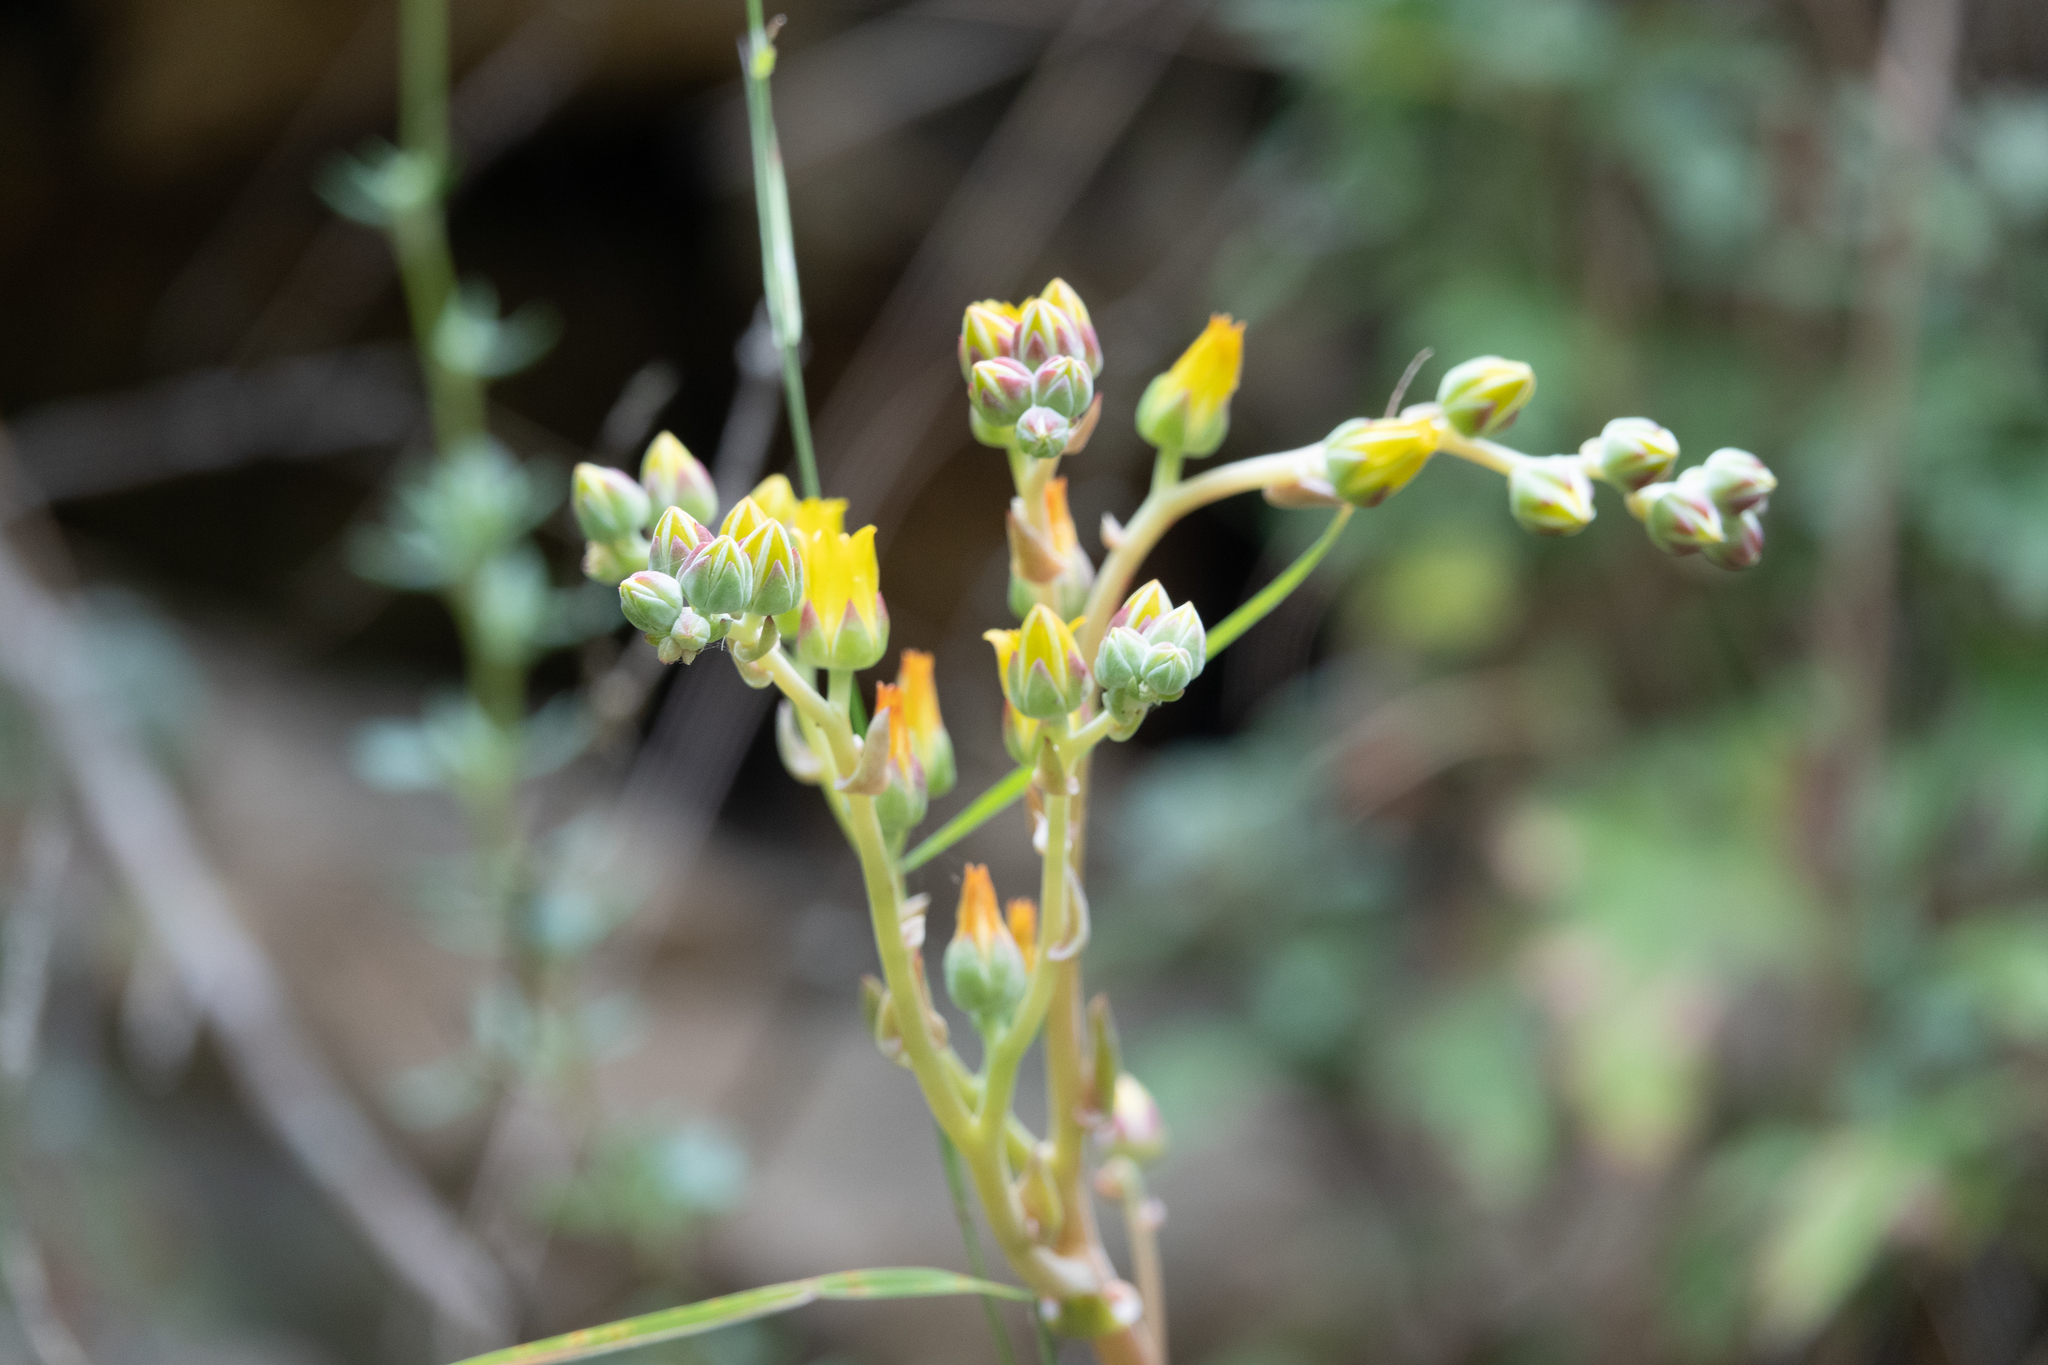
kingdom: Plantae
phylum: Tracheophyta
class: Magnoliopsida
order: Saxifragales
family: Crassulaceae
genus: Dudleya
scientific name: Dudleya lanceolata
